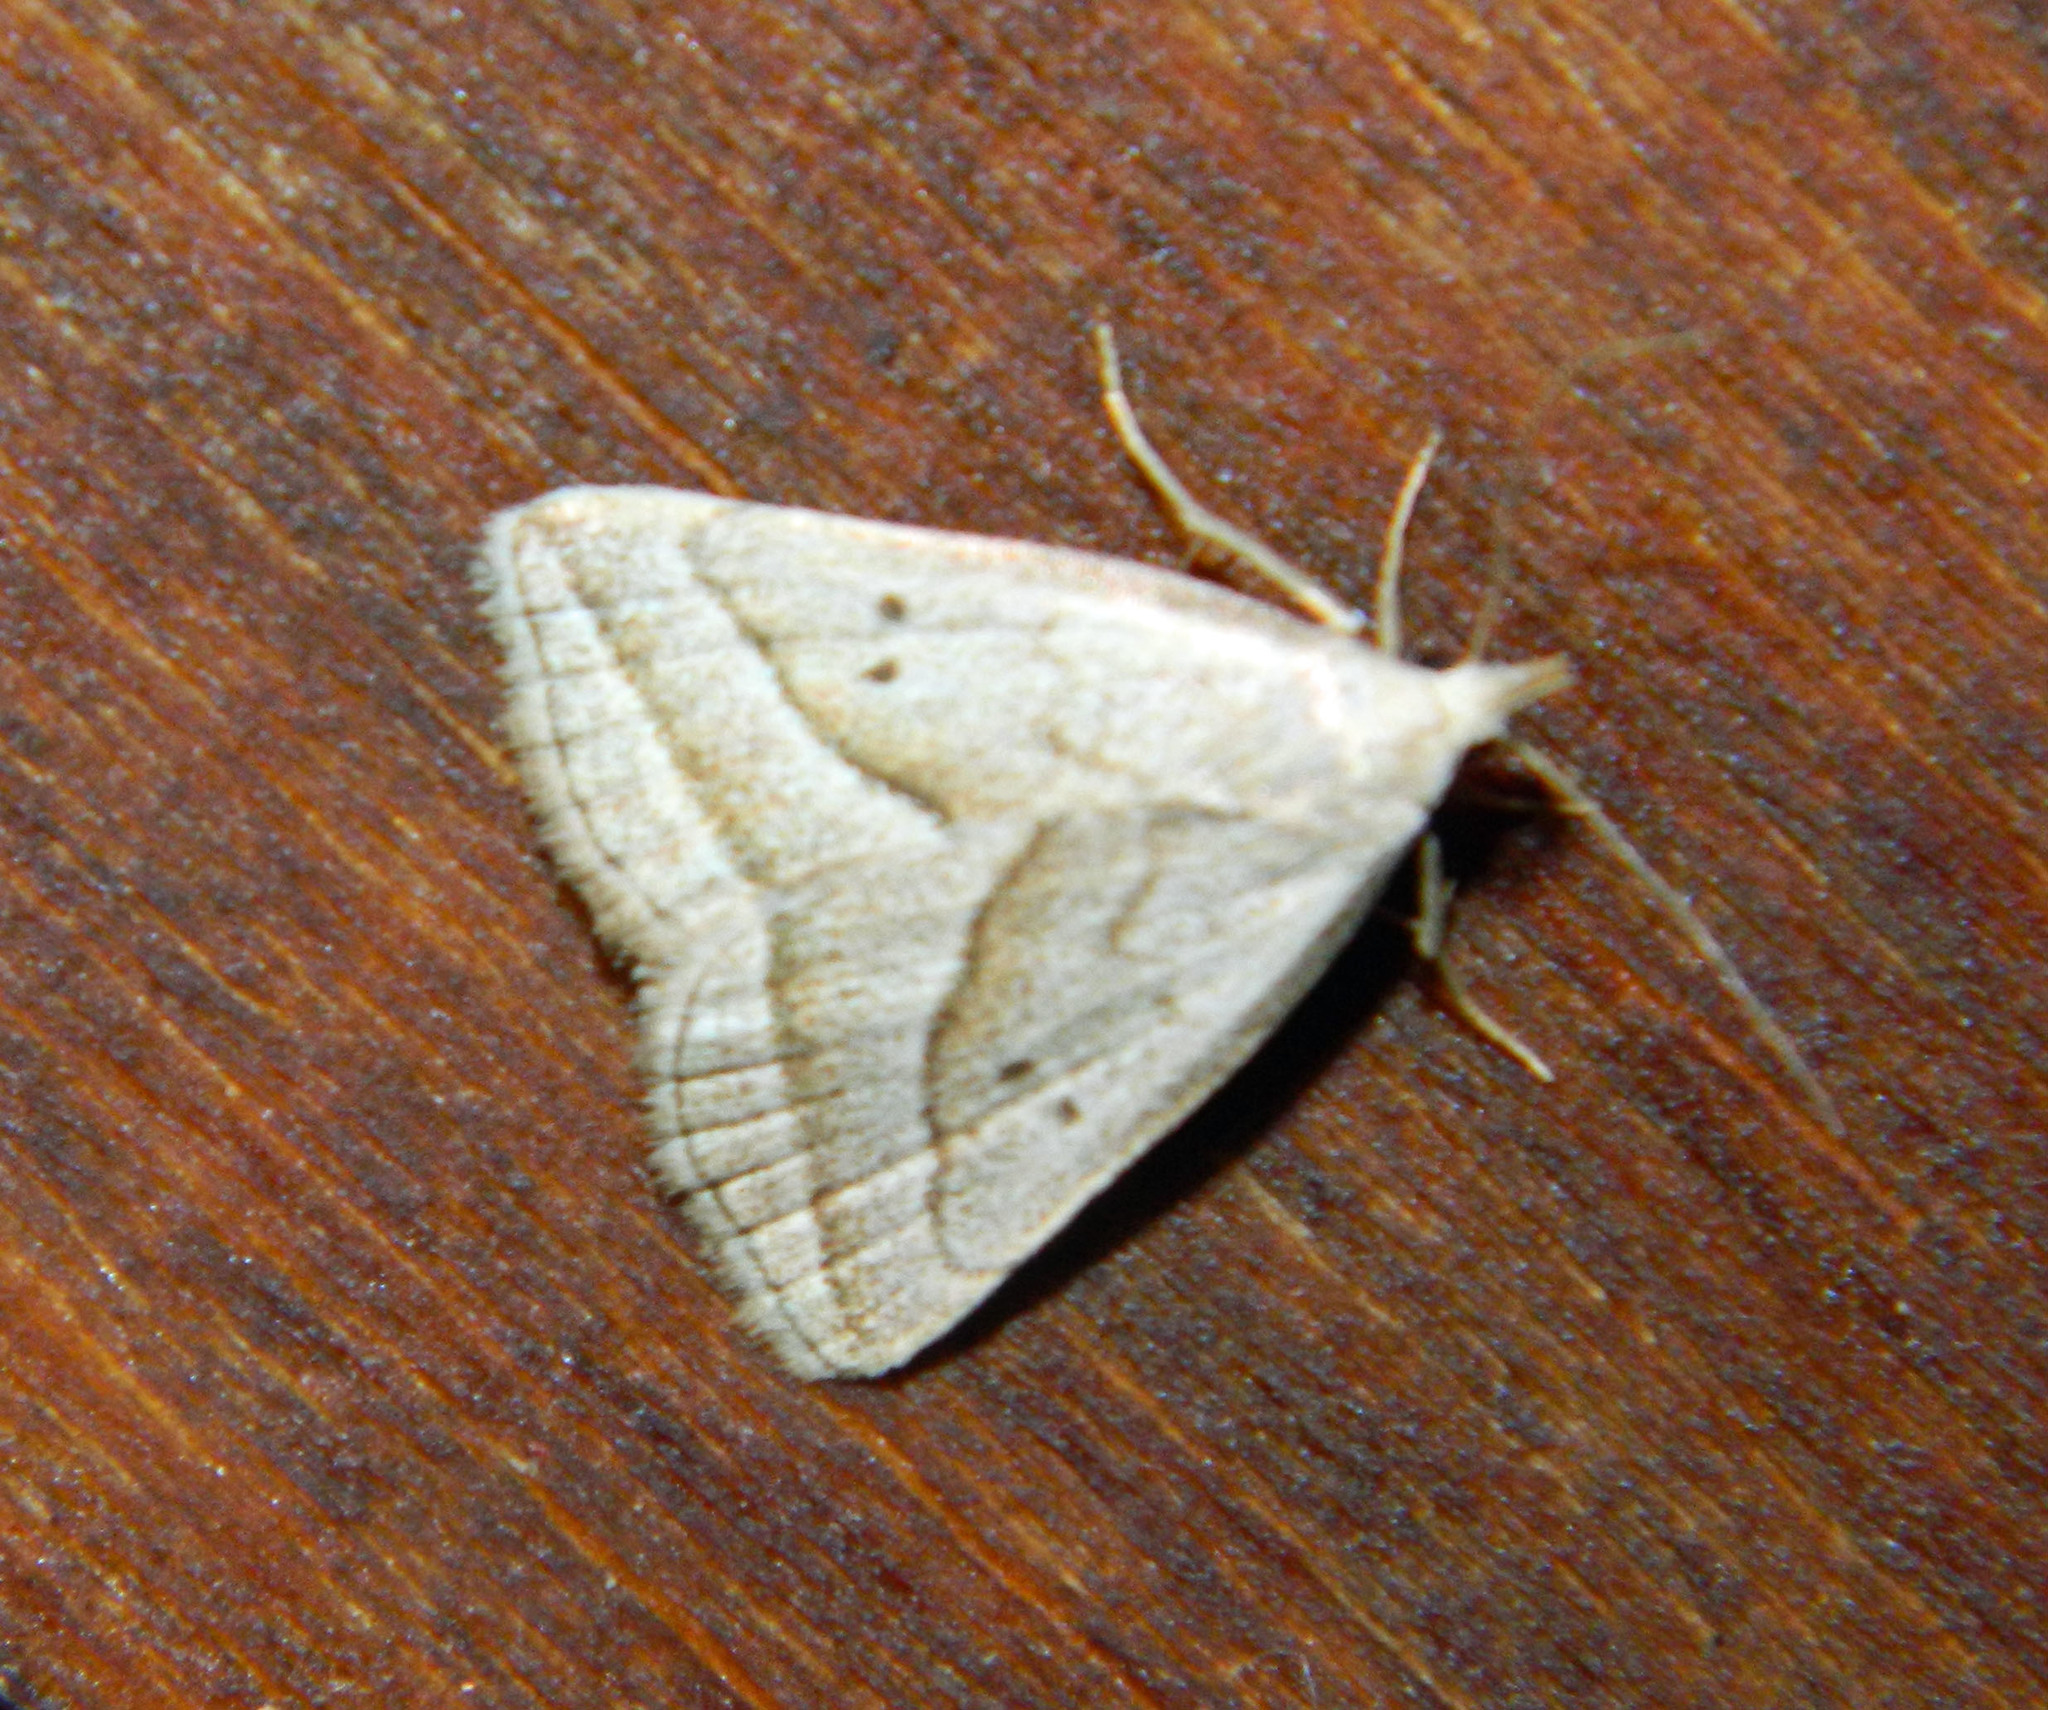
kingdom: Animalia
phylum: Arthropoda
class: Insecta
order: Lepidoptera
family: Erebidae
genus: Macrochilo
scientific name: Macrochilo absorptalis
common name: Slant-lined owlet
